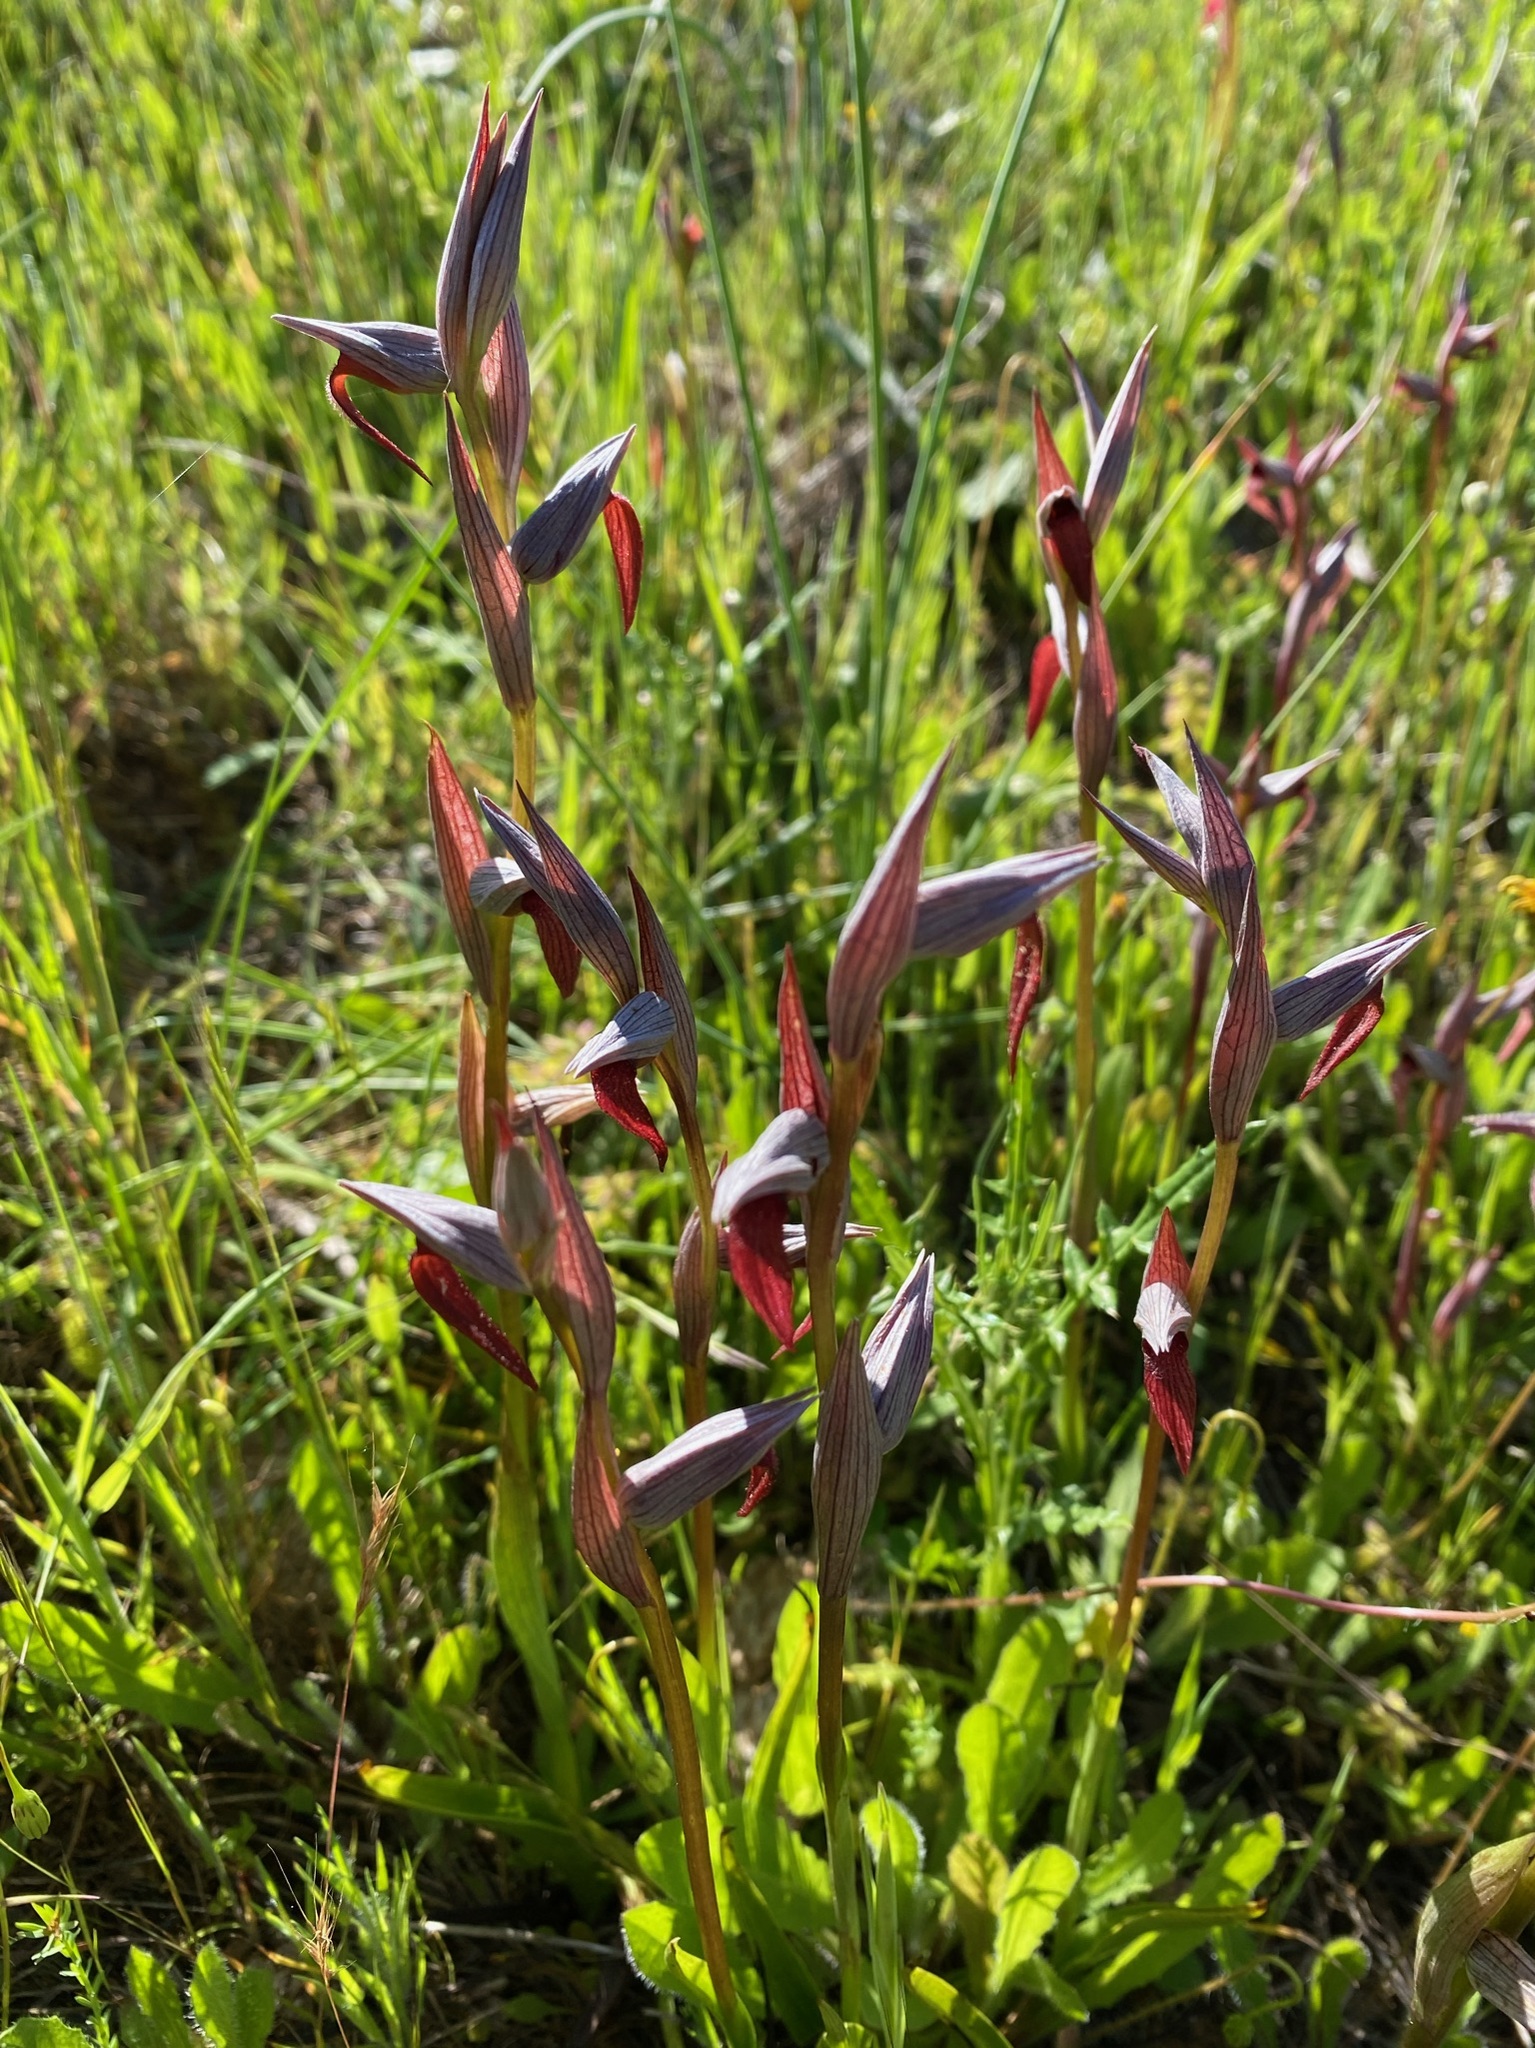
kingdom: Plantae
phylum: Tracheophyta
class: Liliopsida
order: Asparagales
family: Orchidaceae
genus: Serapias
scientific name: Serapias strictiflora
